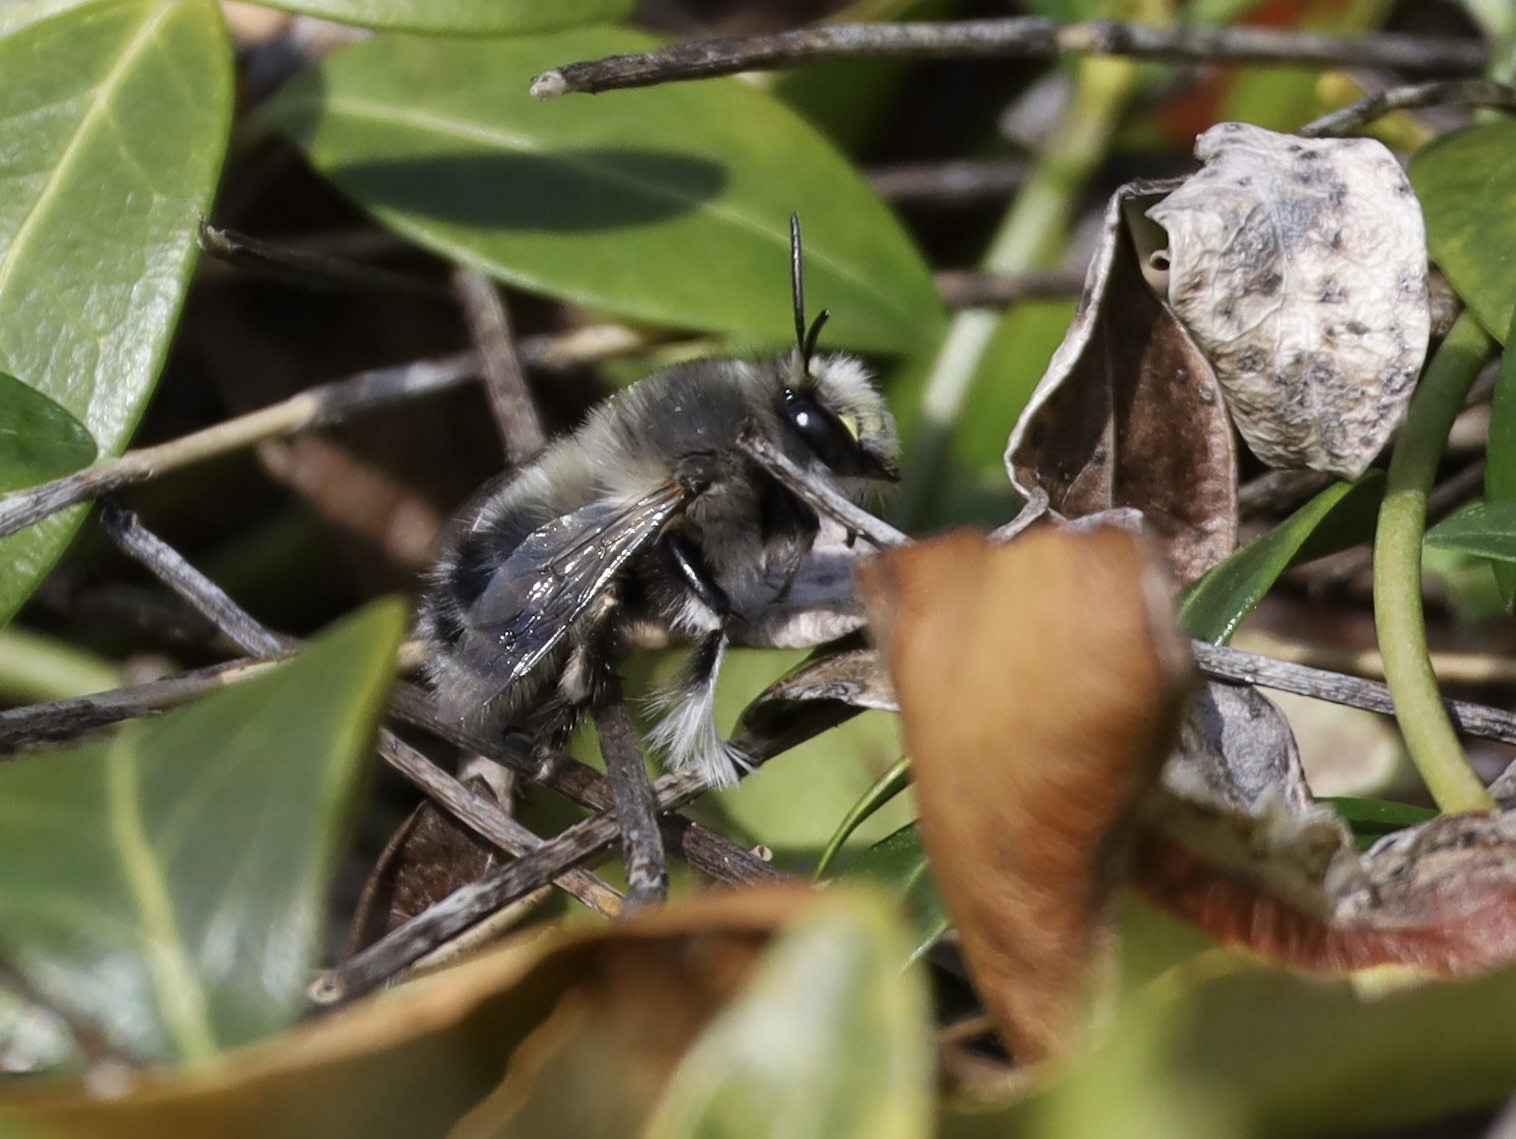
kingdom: Animalia
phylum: Arthropoda
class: Insecta
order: Hymenoptera
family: Apidae
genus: Anthophora
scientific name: Anthophora pacifica
